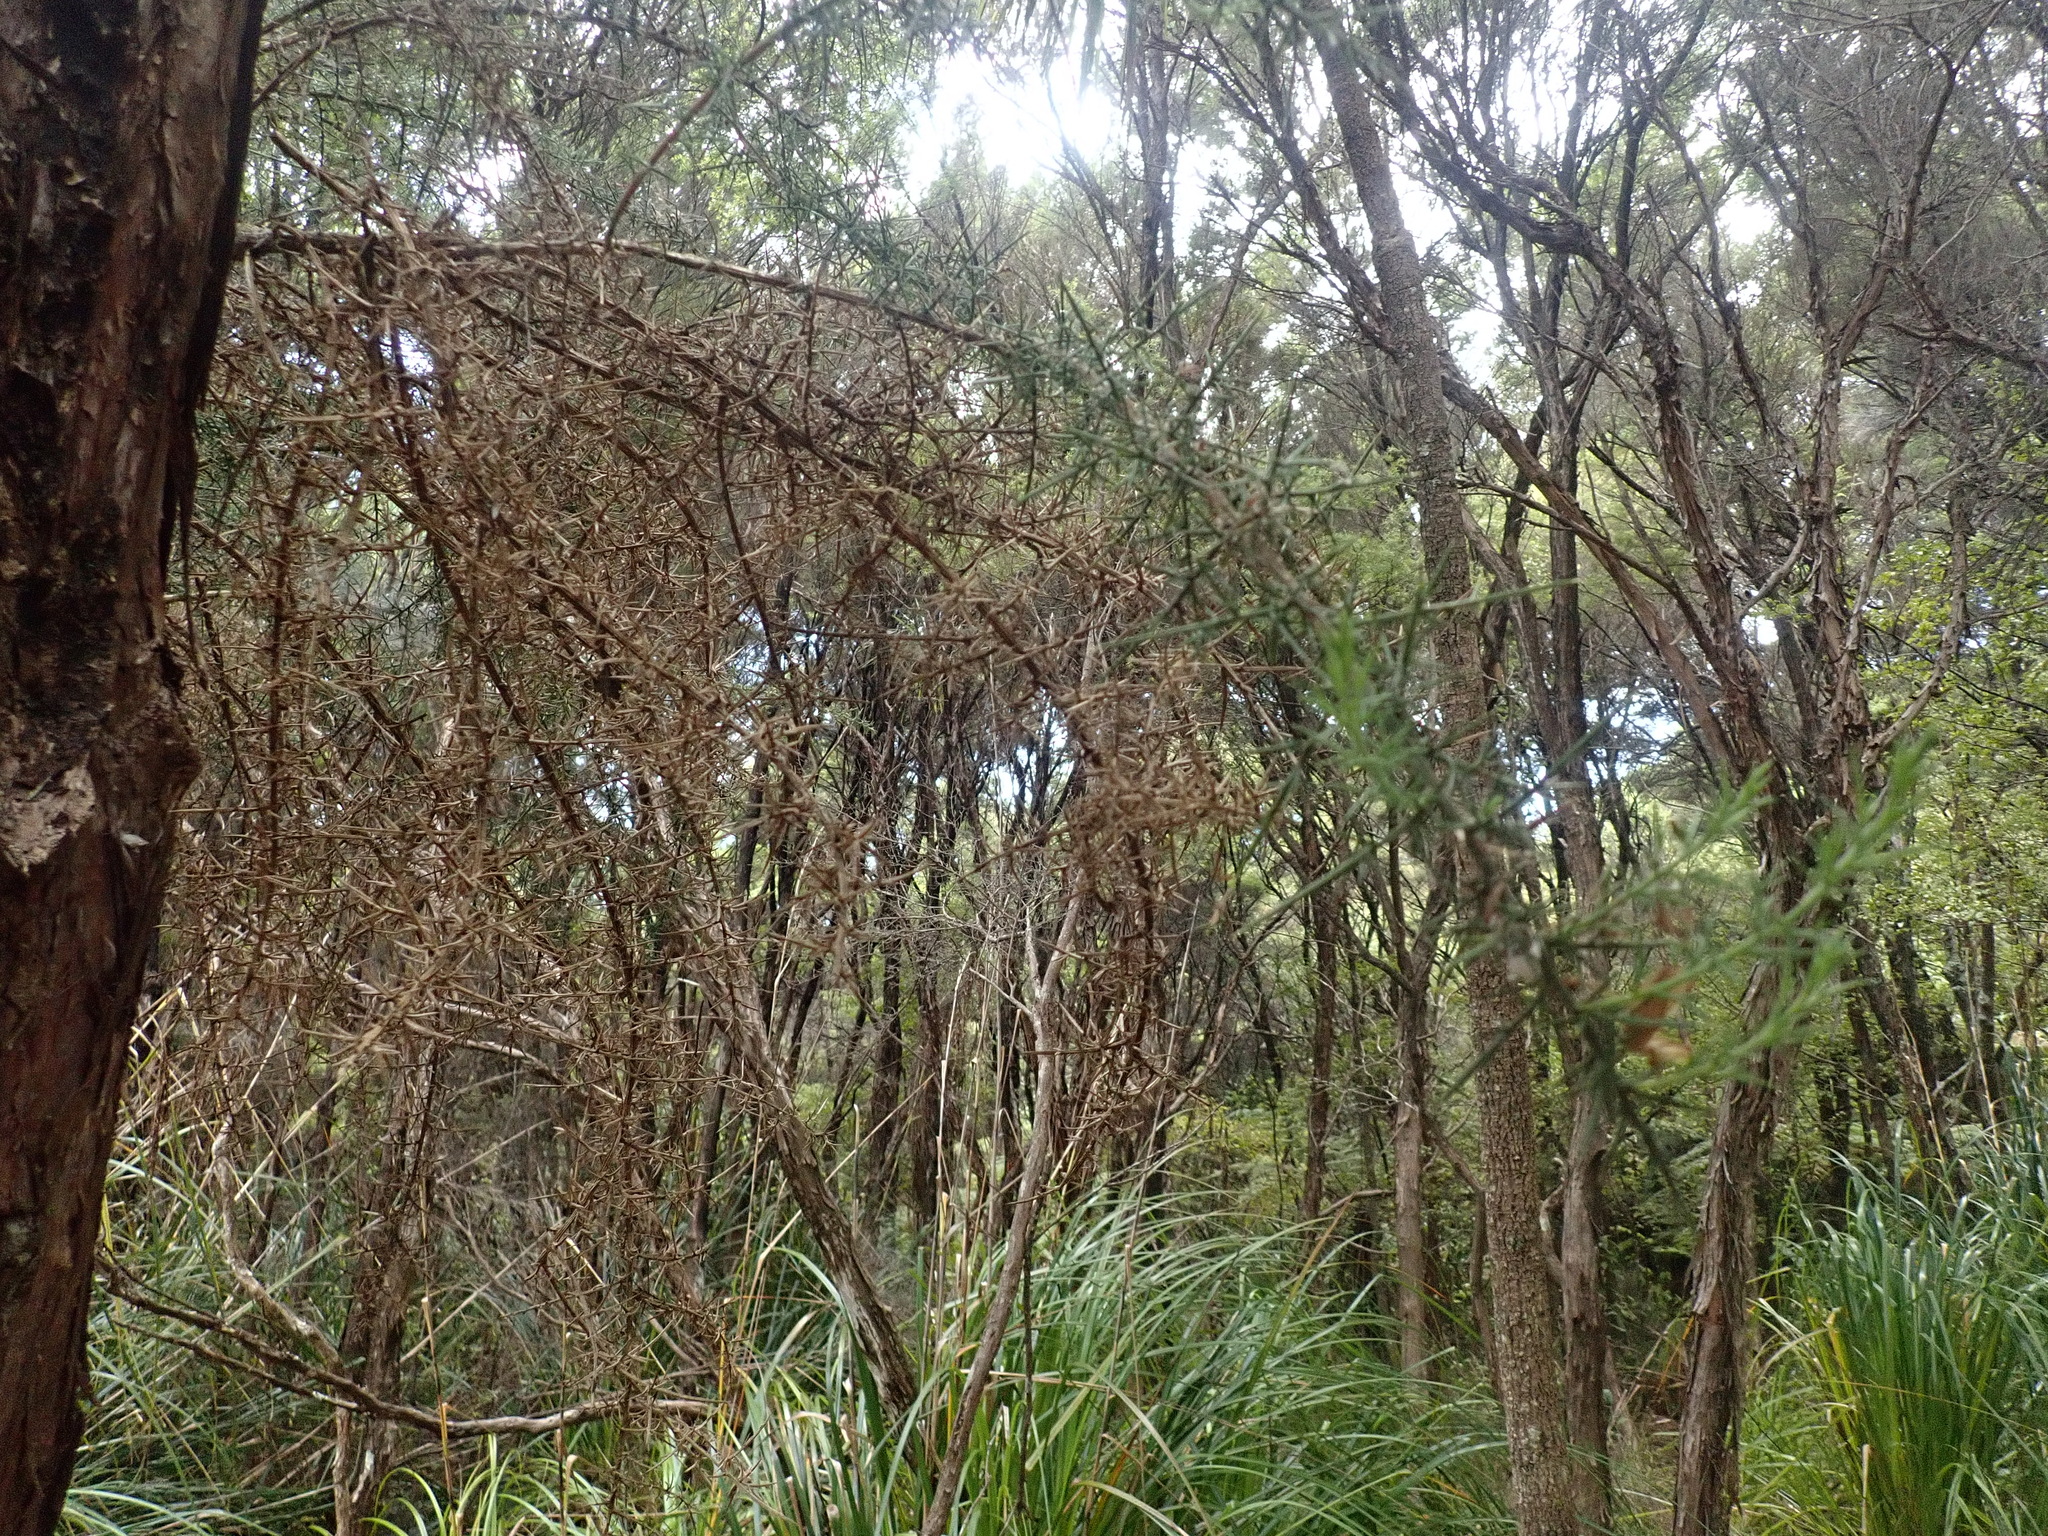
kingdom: Plantae
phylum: Tracheophyta
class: Magnoliopsida
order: Myrtales
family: Myrtaceae
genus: Kunzea
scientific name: Kunzea robusta
